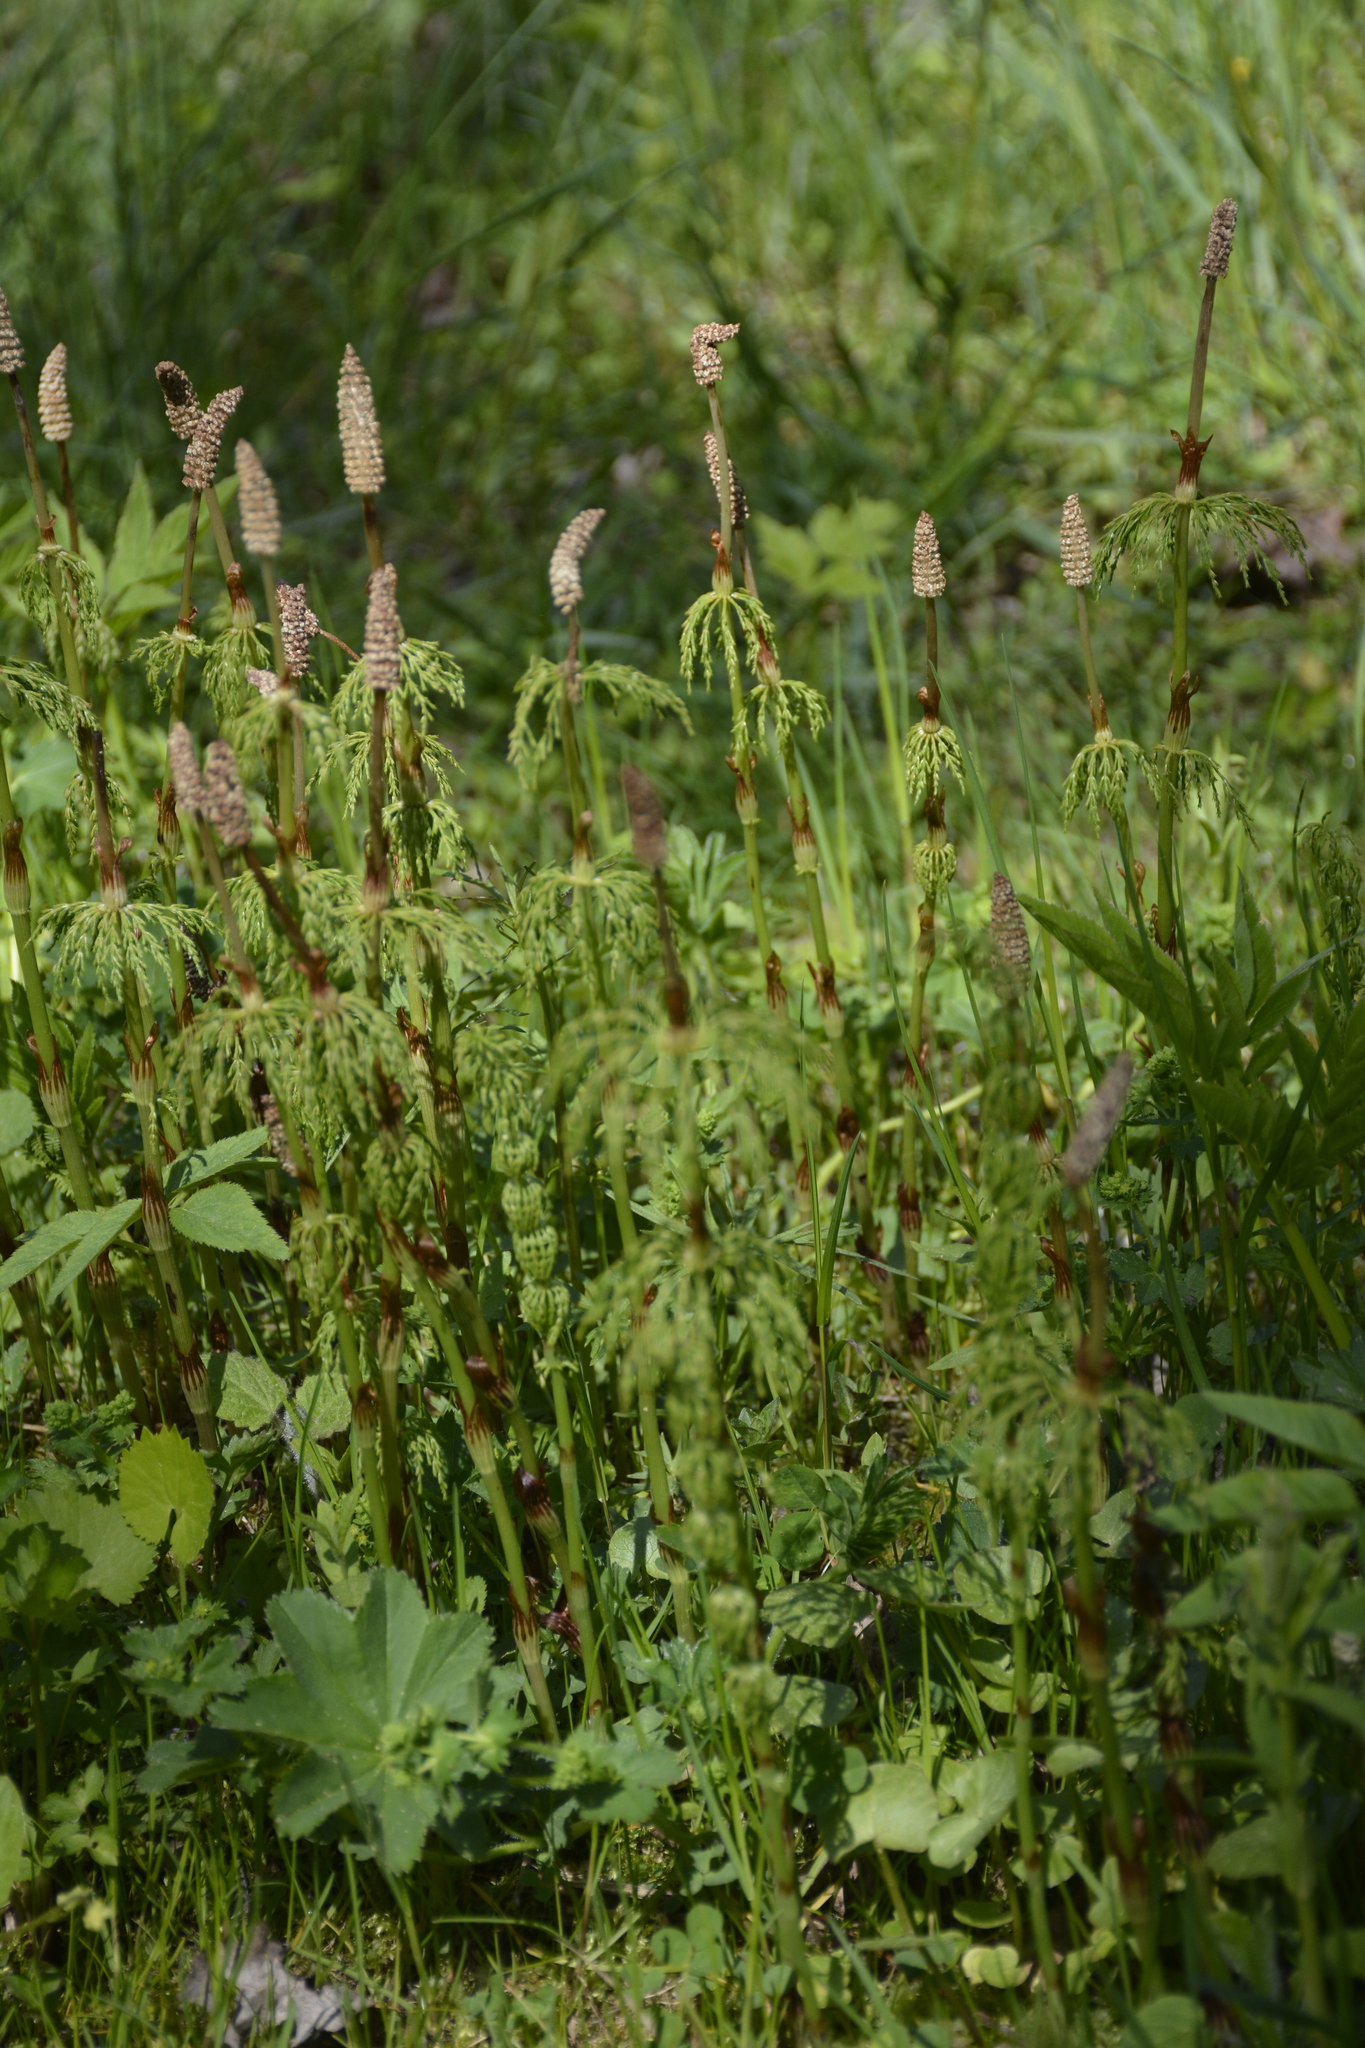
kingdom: Plantae
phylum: Tracheophyta
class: Polypodiopsida
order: Equisetales
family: Equisetaceae
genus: Equisetum
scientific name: Equisetum sylvaticum
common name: Wood horsetail
